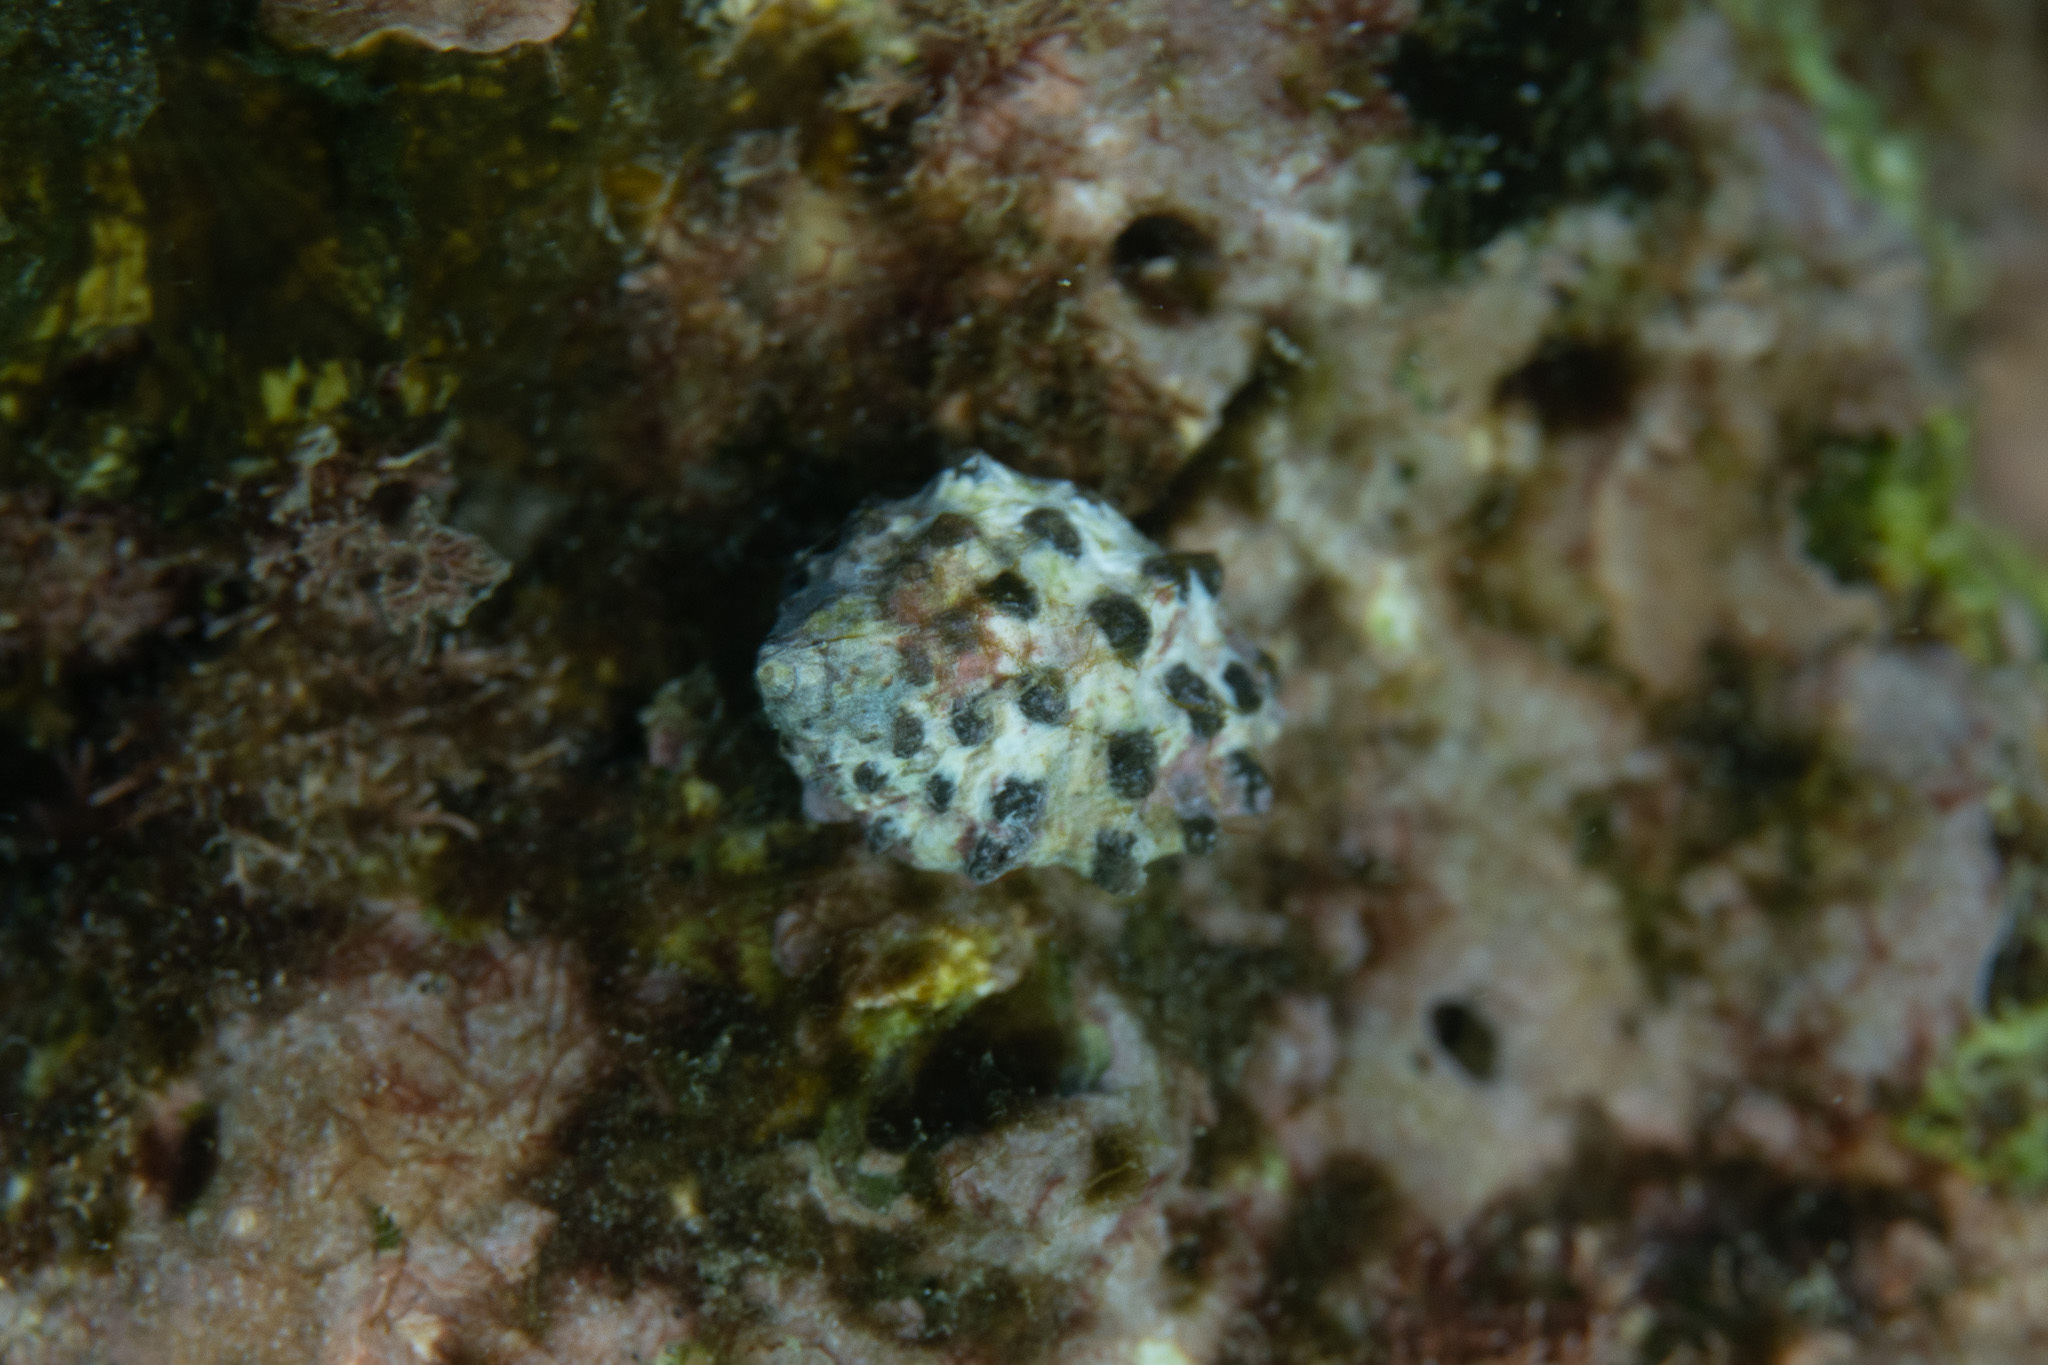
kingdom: Animalia
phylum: Mollusca
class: Gastropoda
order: Neogastropoda
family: Muricidae
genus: Morula
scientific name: Morula uva
